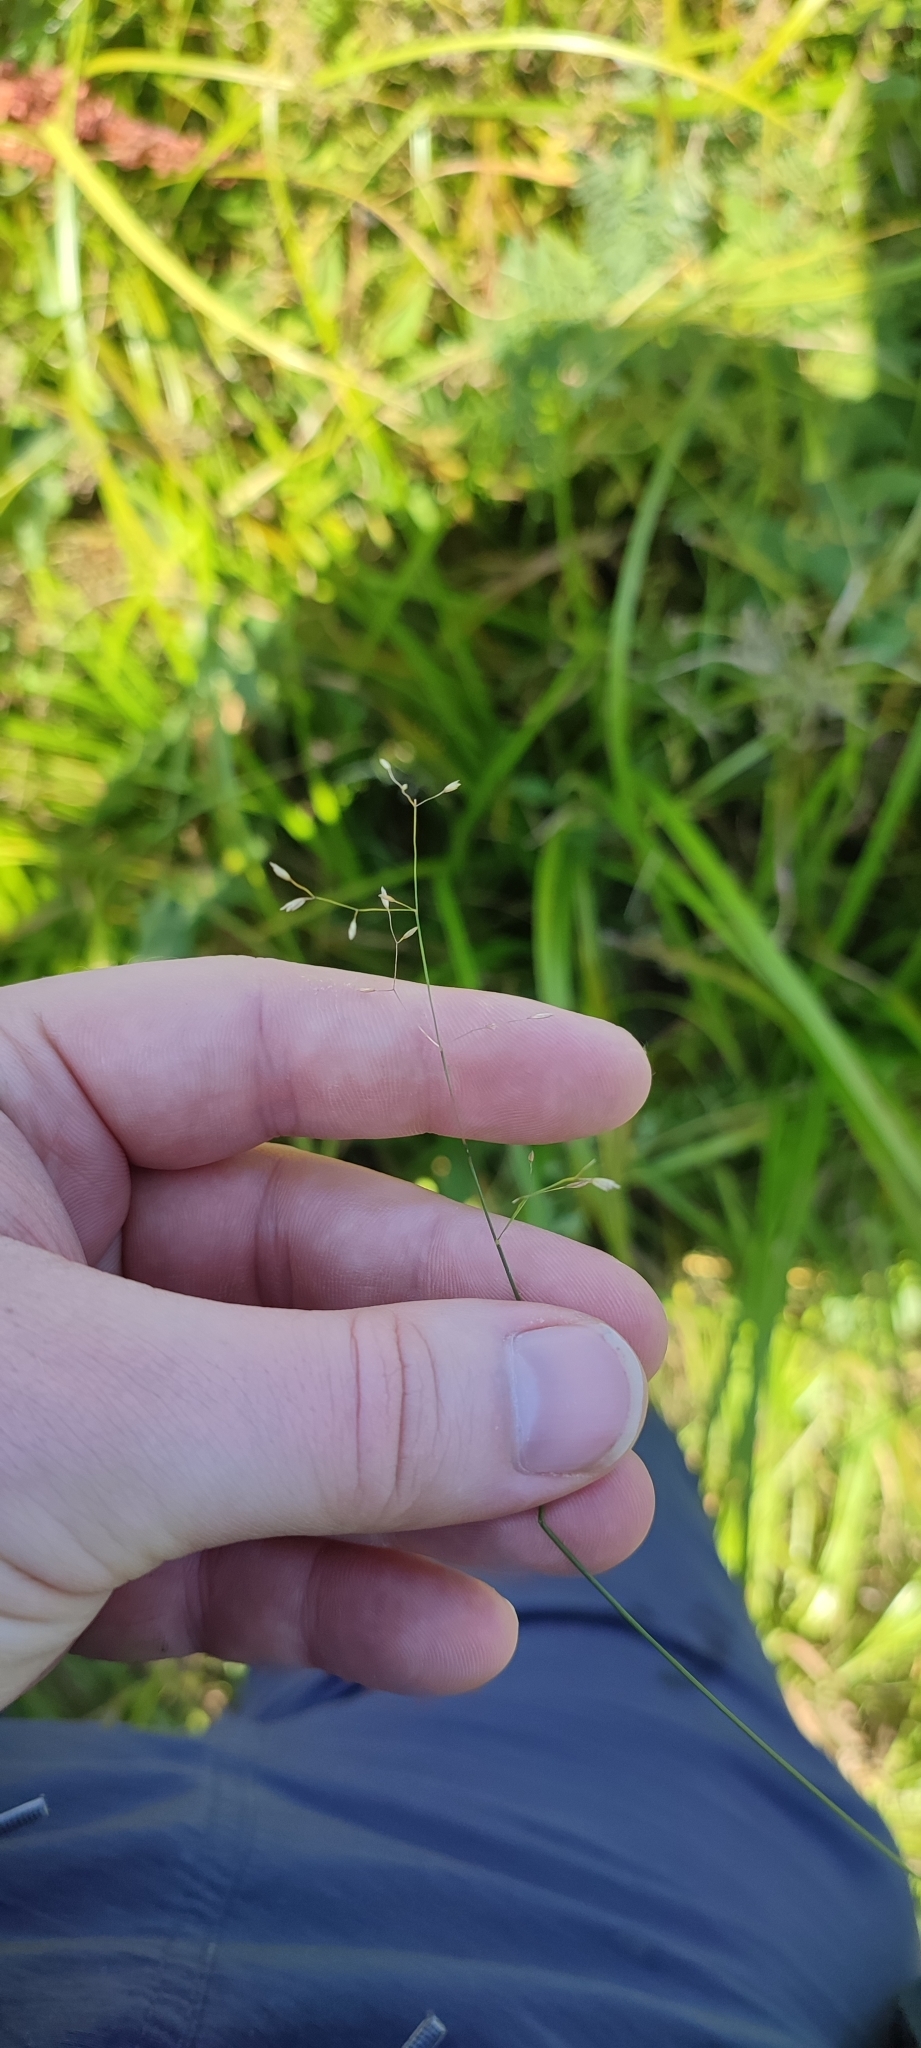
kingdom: Plantae
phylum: Tracheophyta
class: Liliopsida
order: Poales
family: Poaceae
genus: Poa
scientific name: Poa palustris
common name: Swamp meadow-grass
